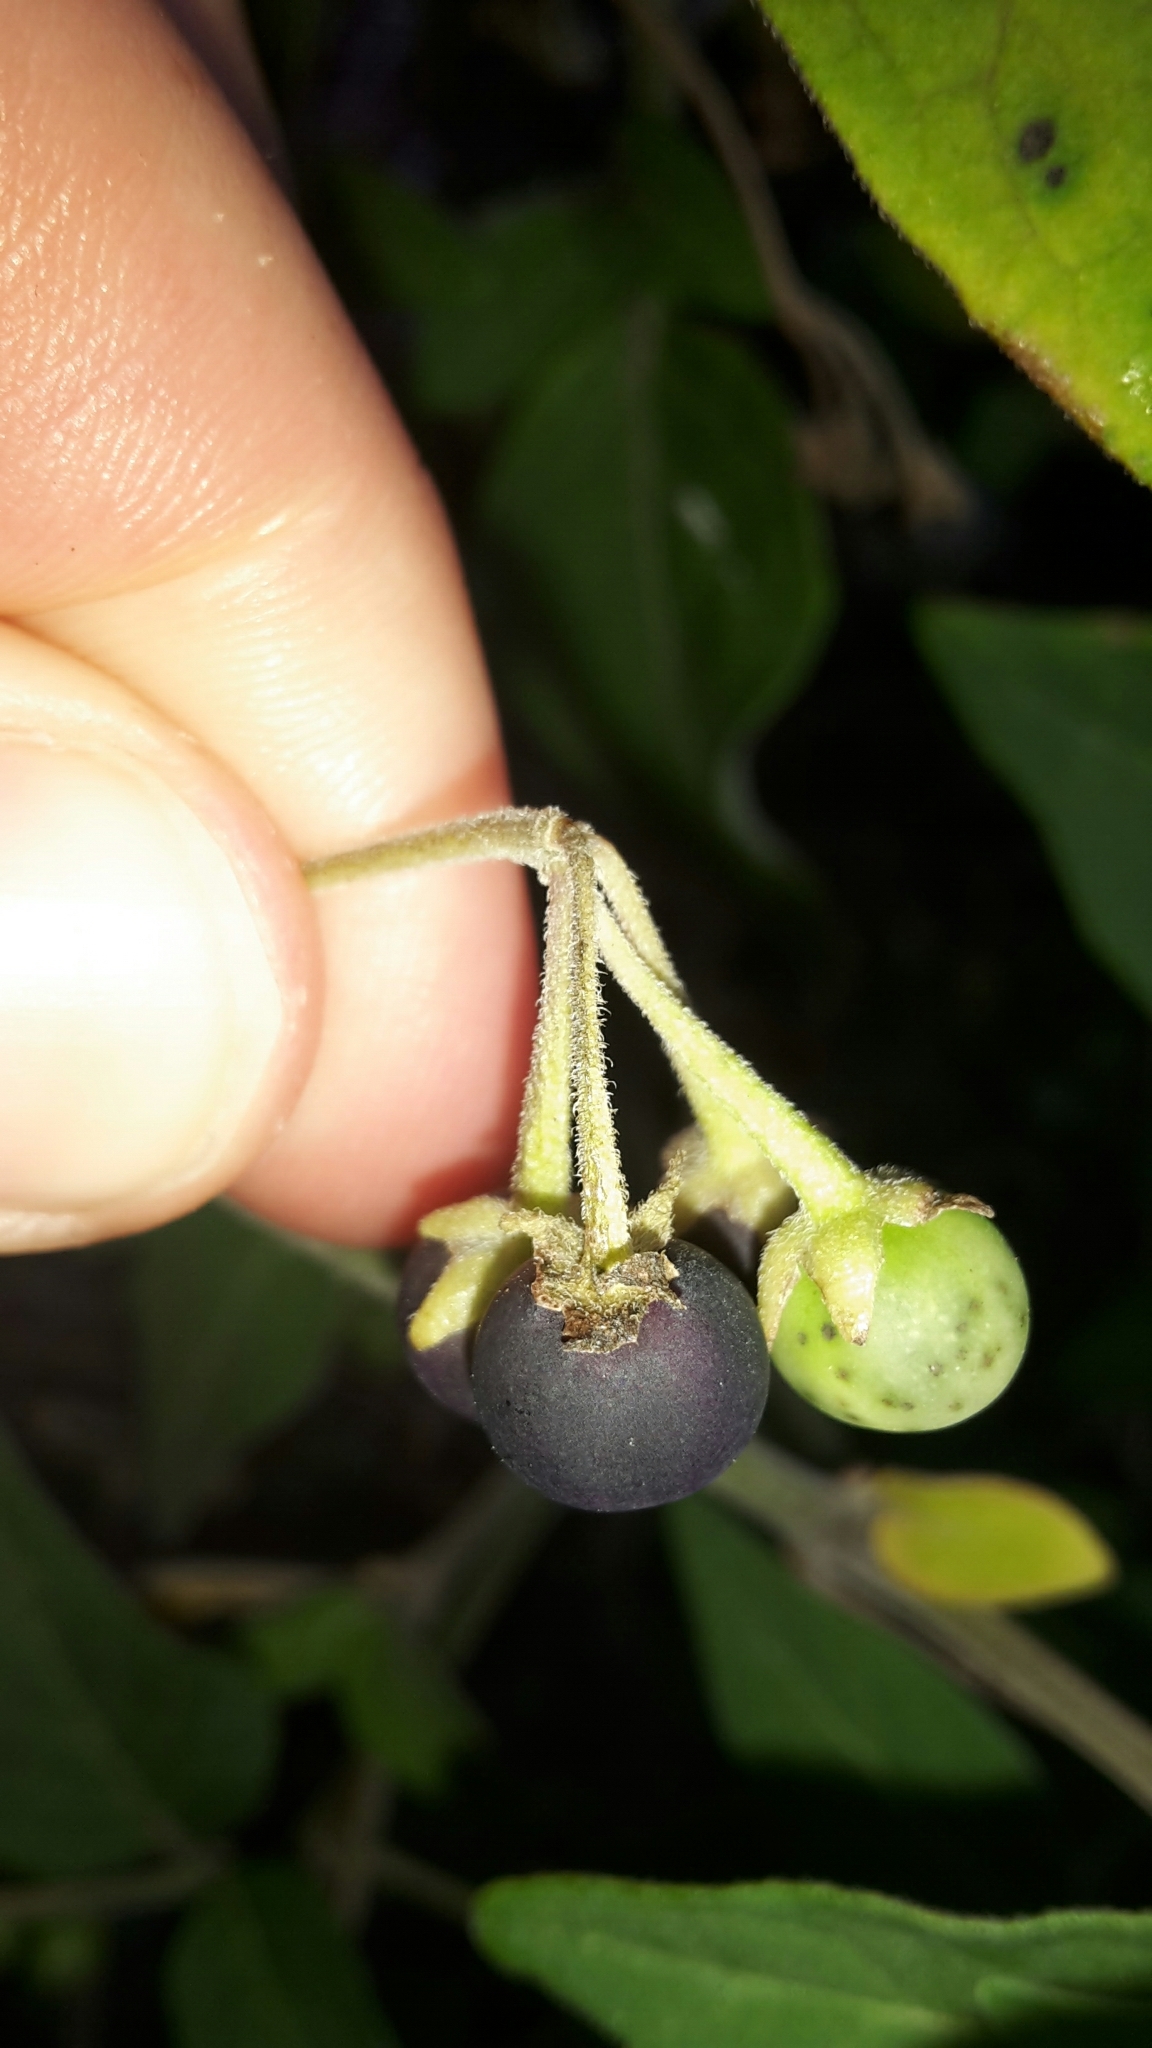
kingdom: Plantae
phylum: Tracheophyta
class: Magnoliopsida
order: Solanales
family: Solanaceae
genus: Solanum
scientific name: Solanum chenopodioides
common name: Tall nightshade
